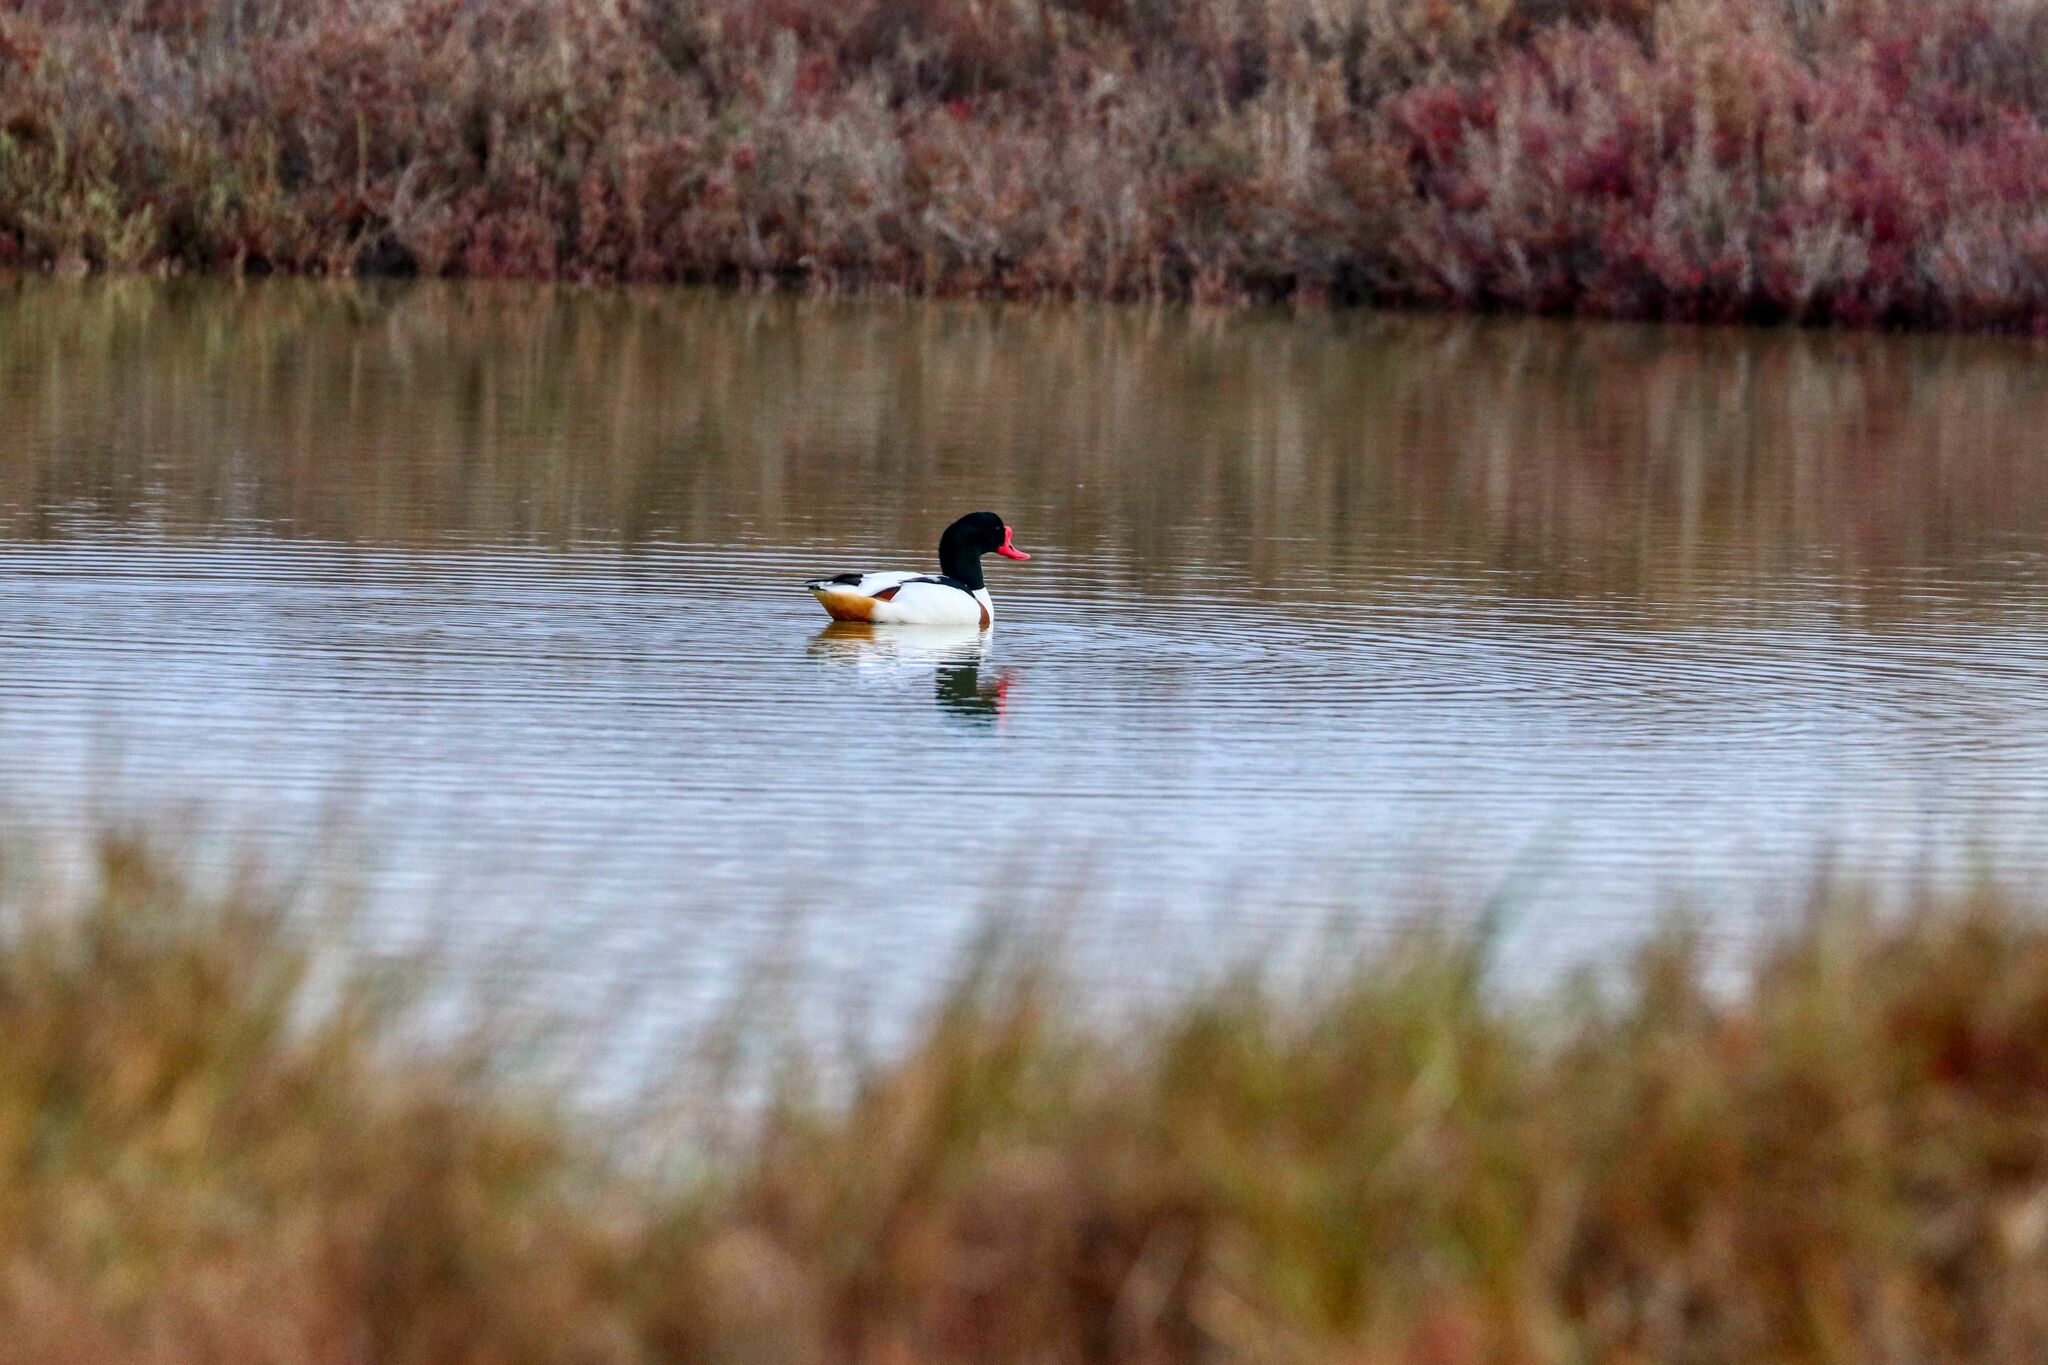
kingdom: Animalia
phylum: Chordata
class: Aves
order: Anseriformes
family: Anatidae
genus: Tadorna
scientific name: Tadorna tadorna
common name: Common shelduck
